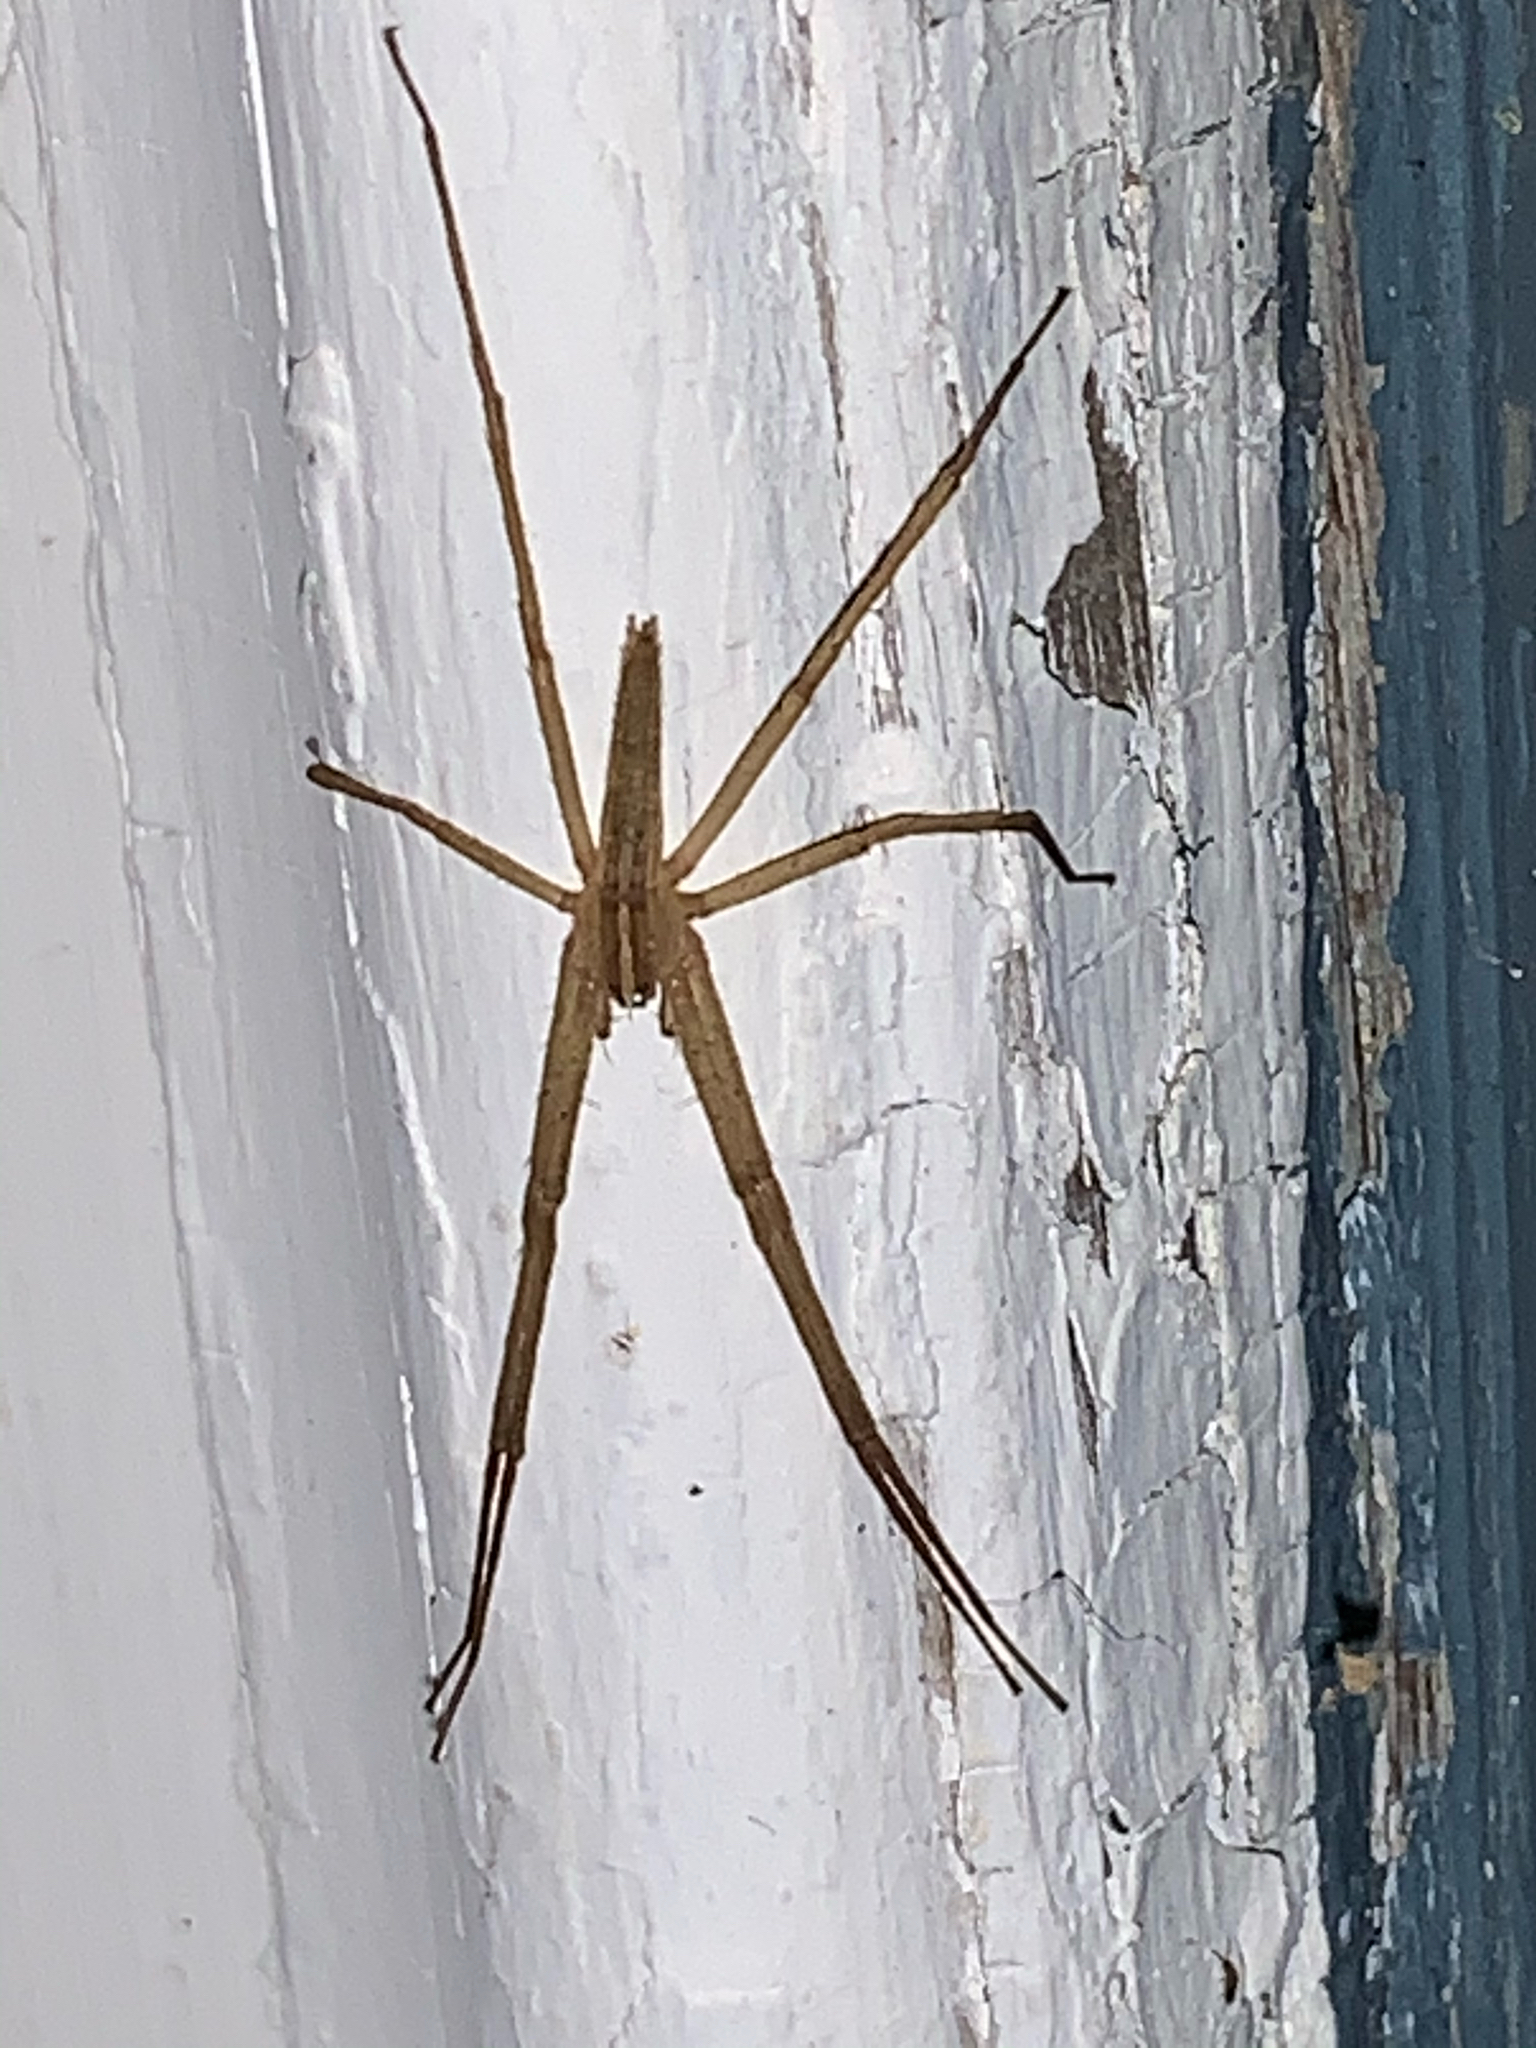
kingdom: Animalia
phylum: Arthropoda
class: Arachnida
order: Araneae
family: Pisauridae
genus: Pisaurina
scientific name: Pisaurina dubia
